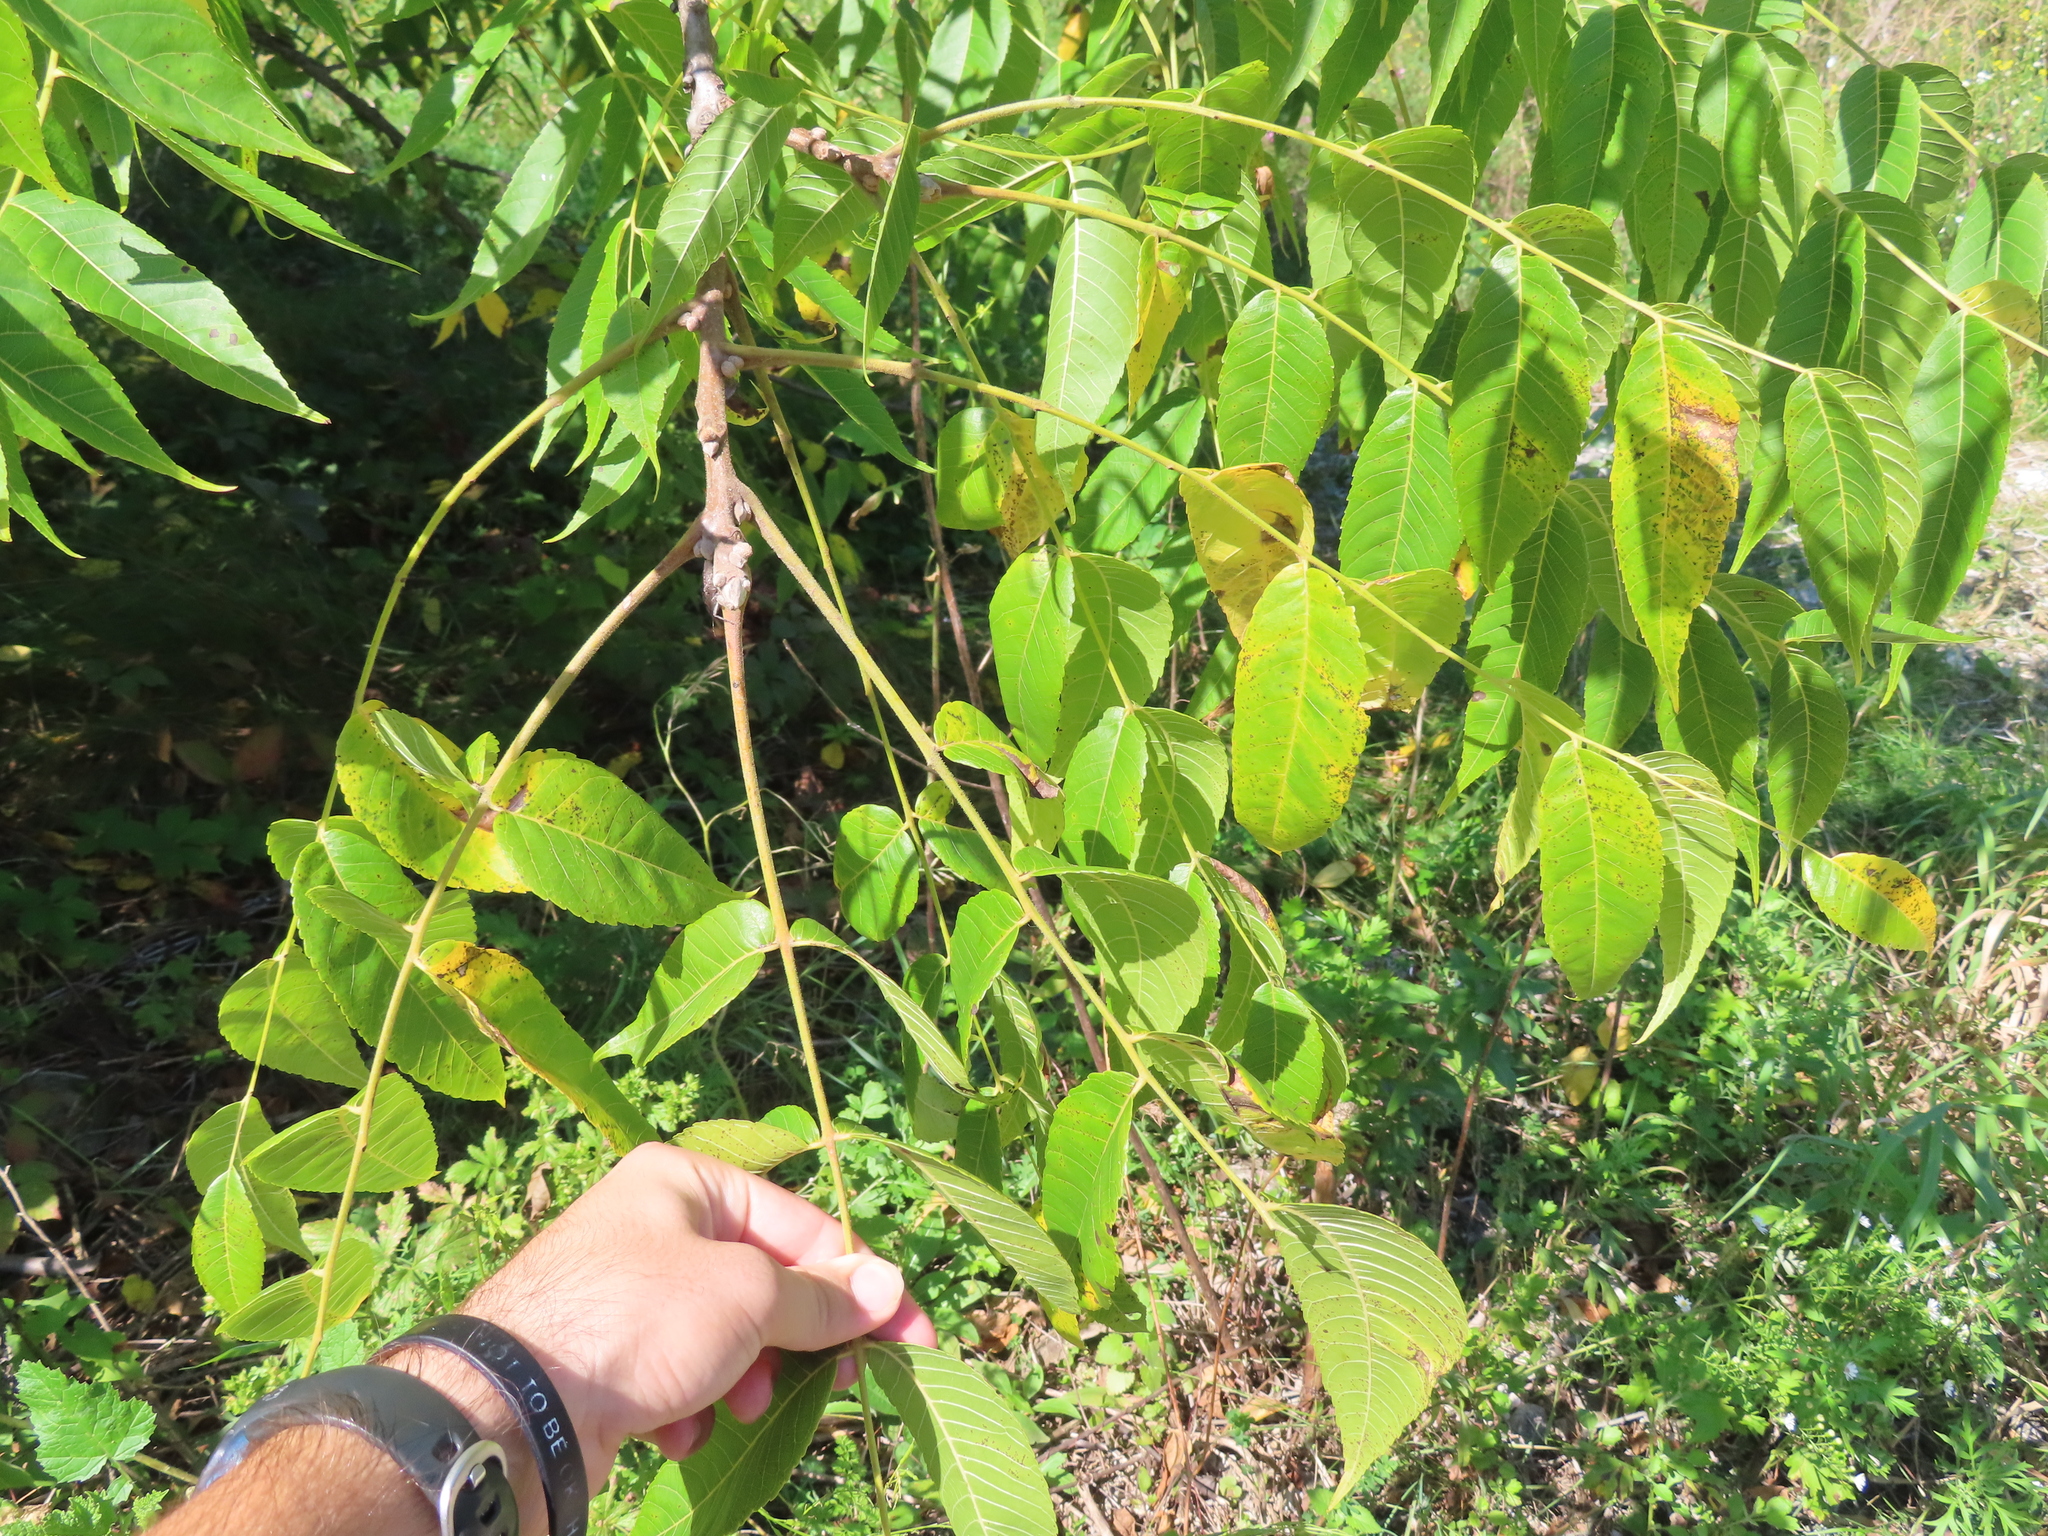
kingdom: Plantae
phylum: Tracheophyta
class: Magnoliopsida
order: Fagales
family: Juglandaceae
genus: Juglans
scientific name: Juglans nigra
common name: Black walnut
